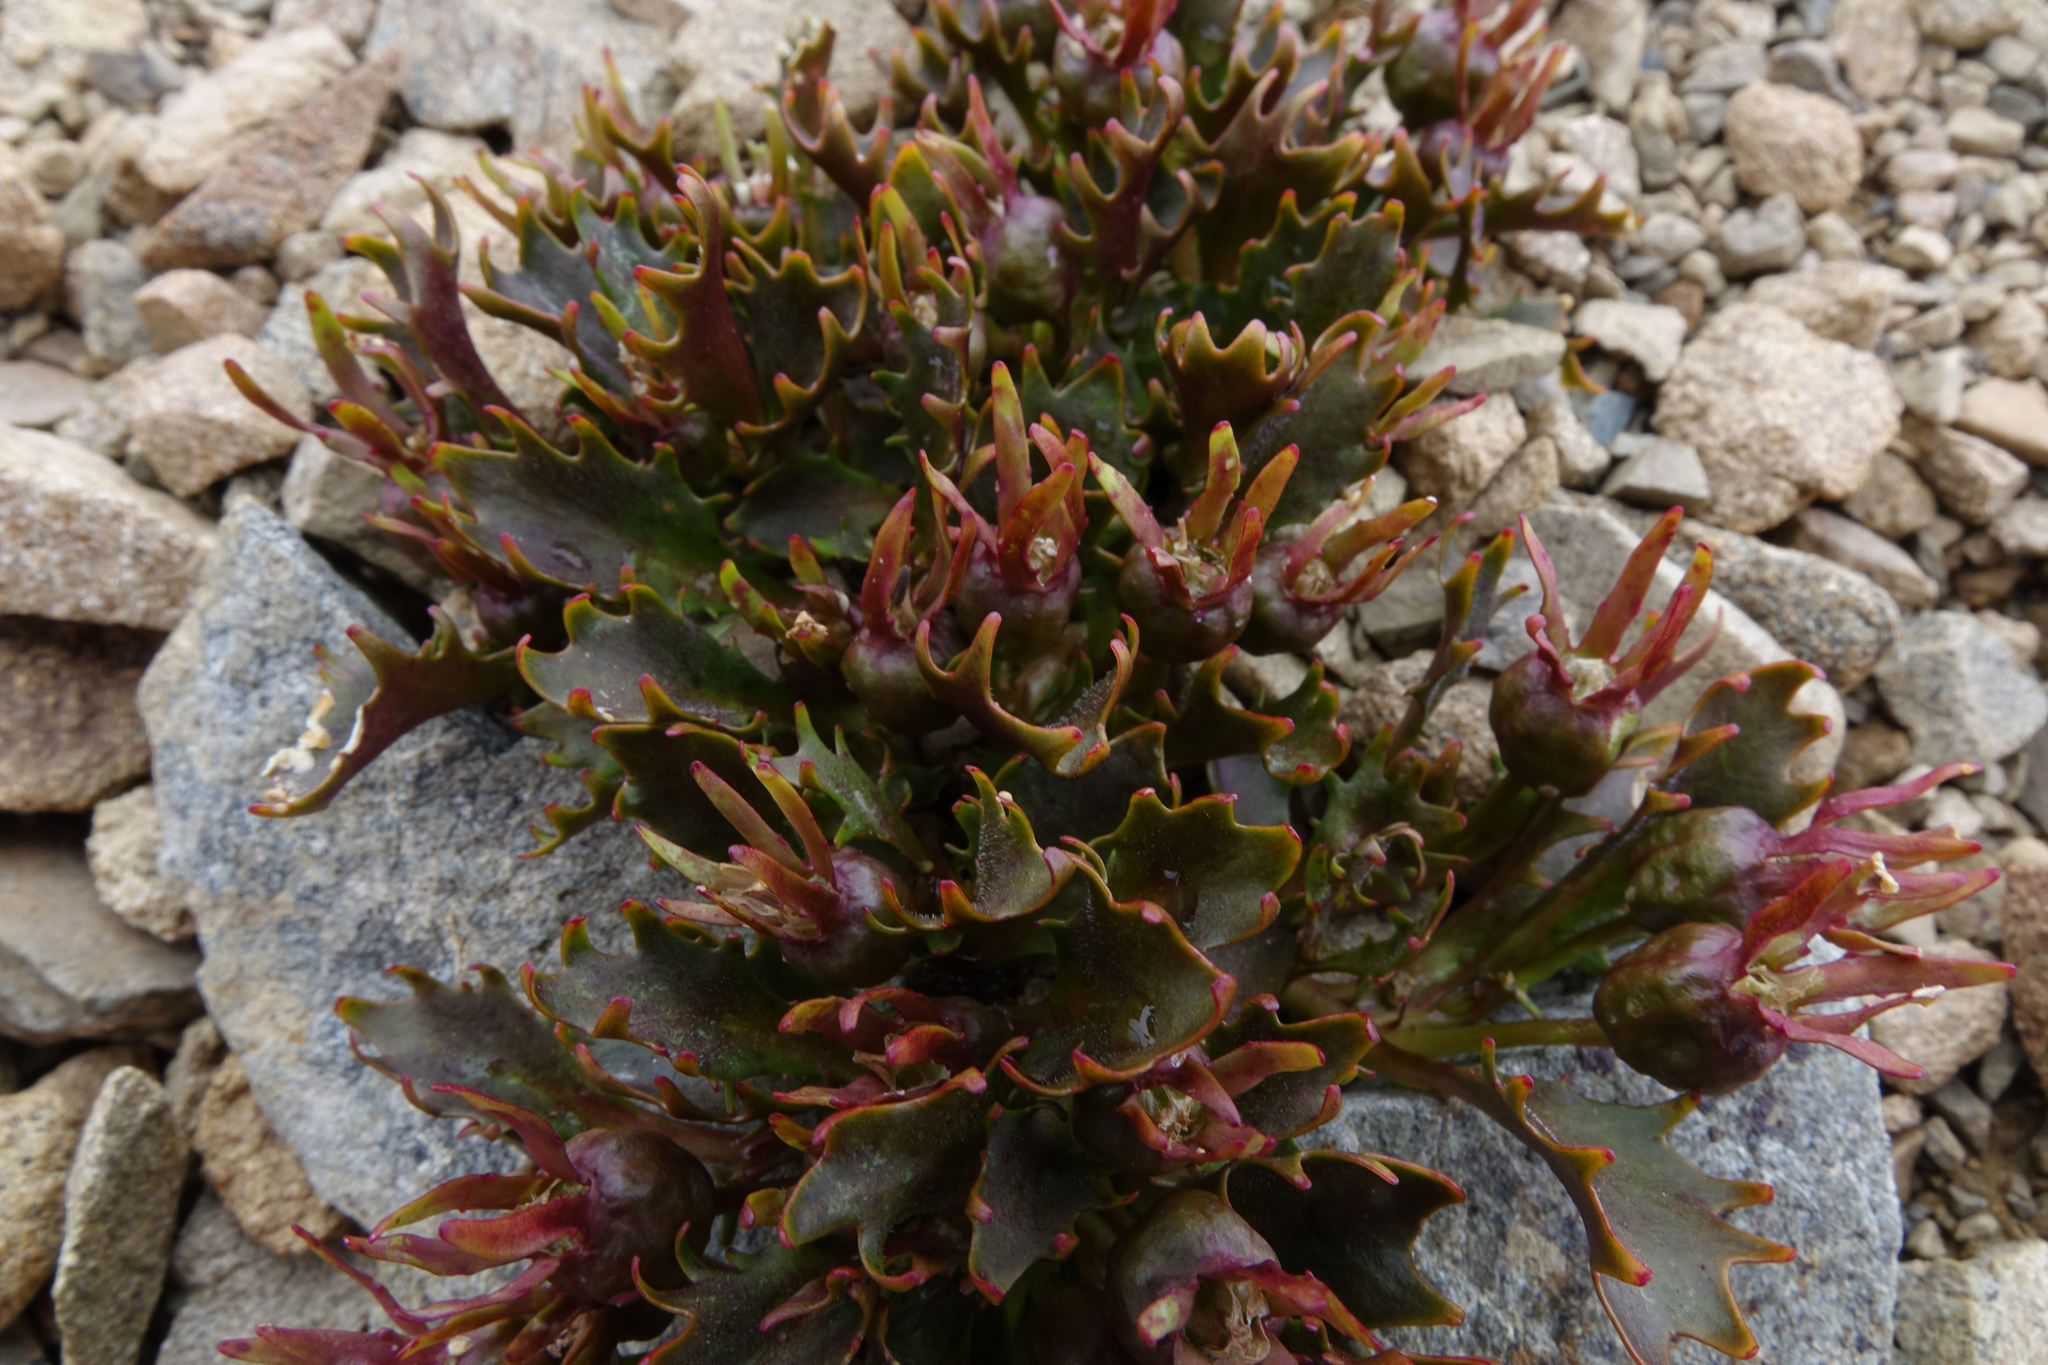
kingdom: Plantae
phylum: Tracheophyta
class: Magnoliopsida
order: Asterales
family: Campanulaceae
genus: Lobelia
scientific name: Lobelia roughii
